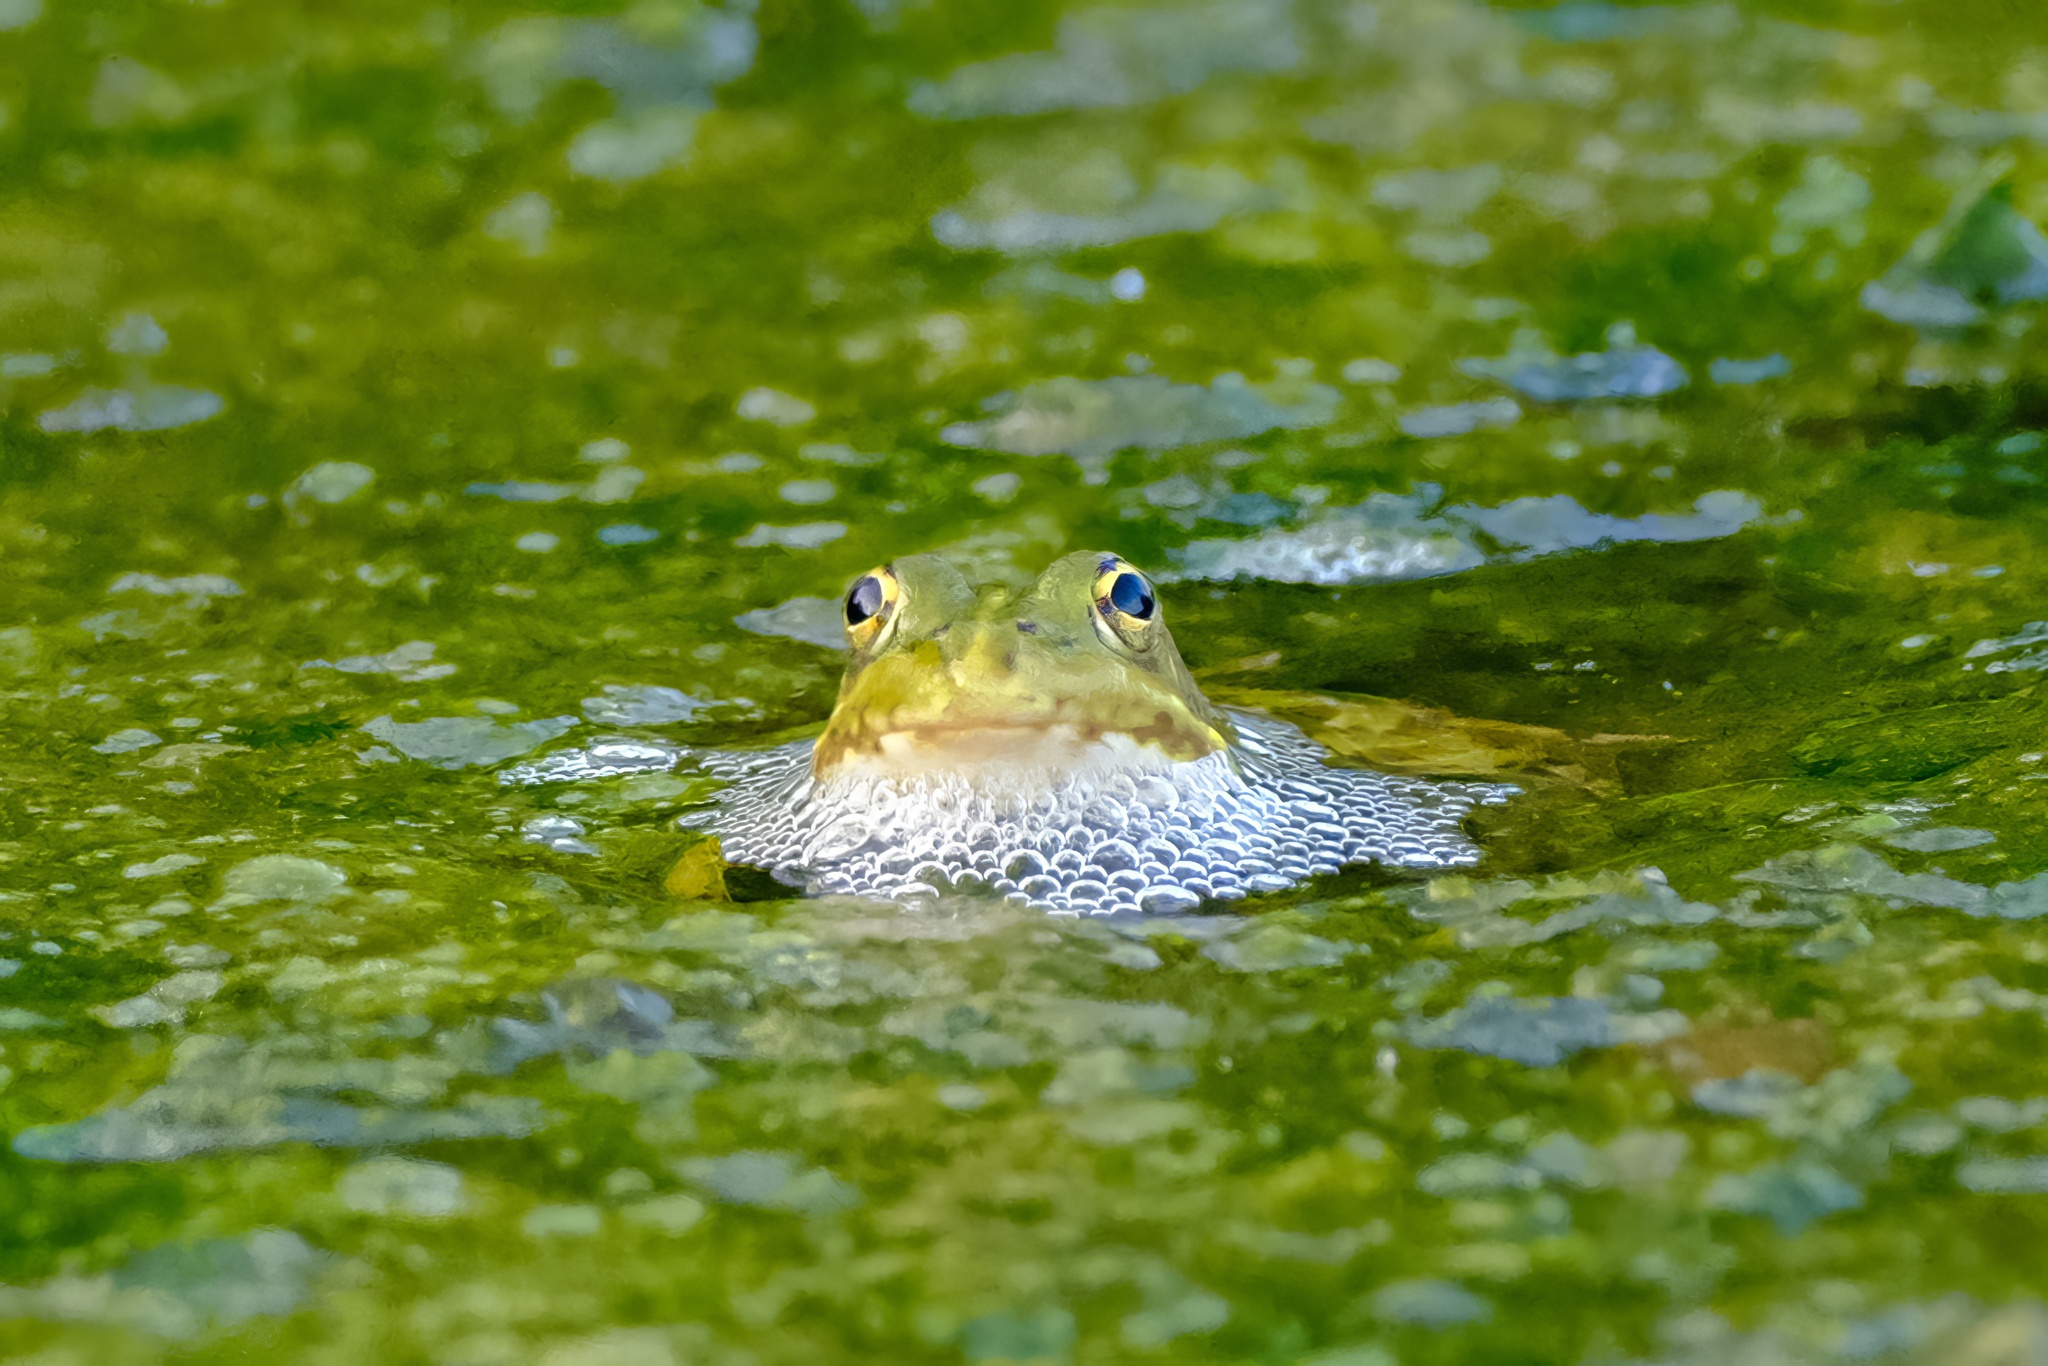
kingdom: Animalia
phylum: Chordata
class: Amphibia
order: Anura
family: Ranidae
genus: Pelophylax
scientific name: Pelophylax perezi
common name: Perez's frog
